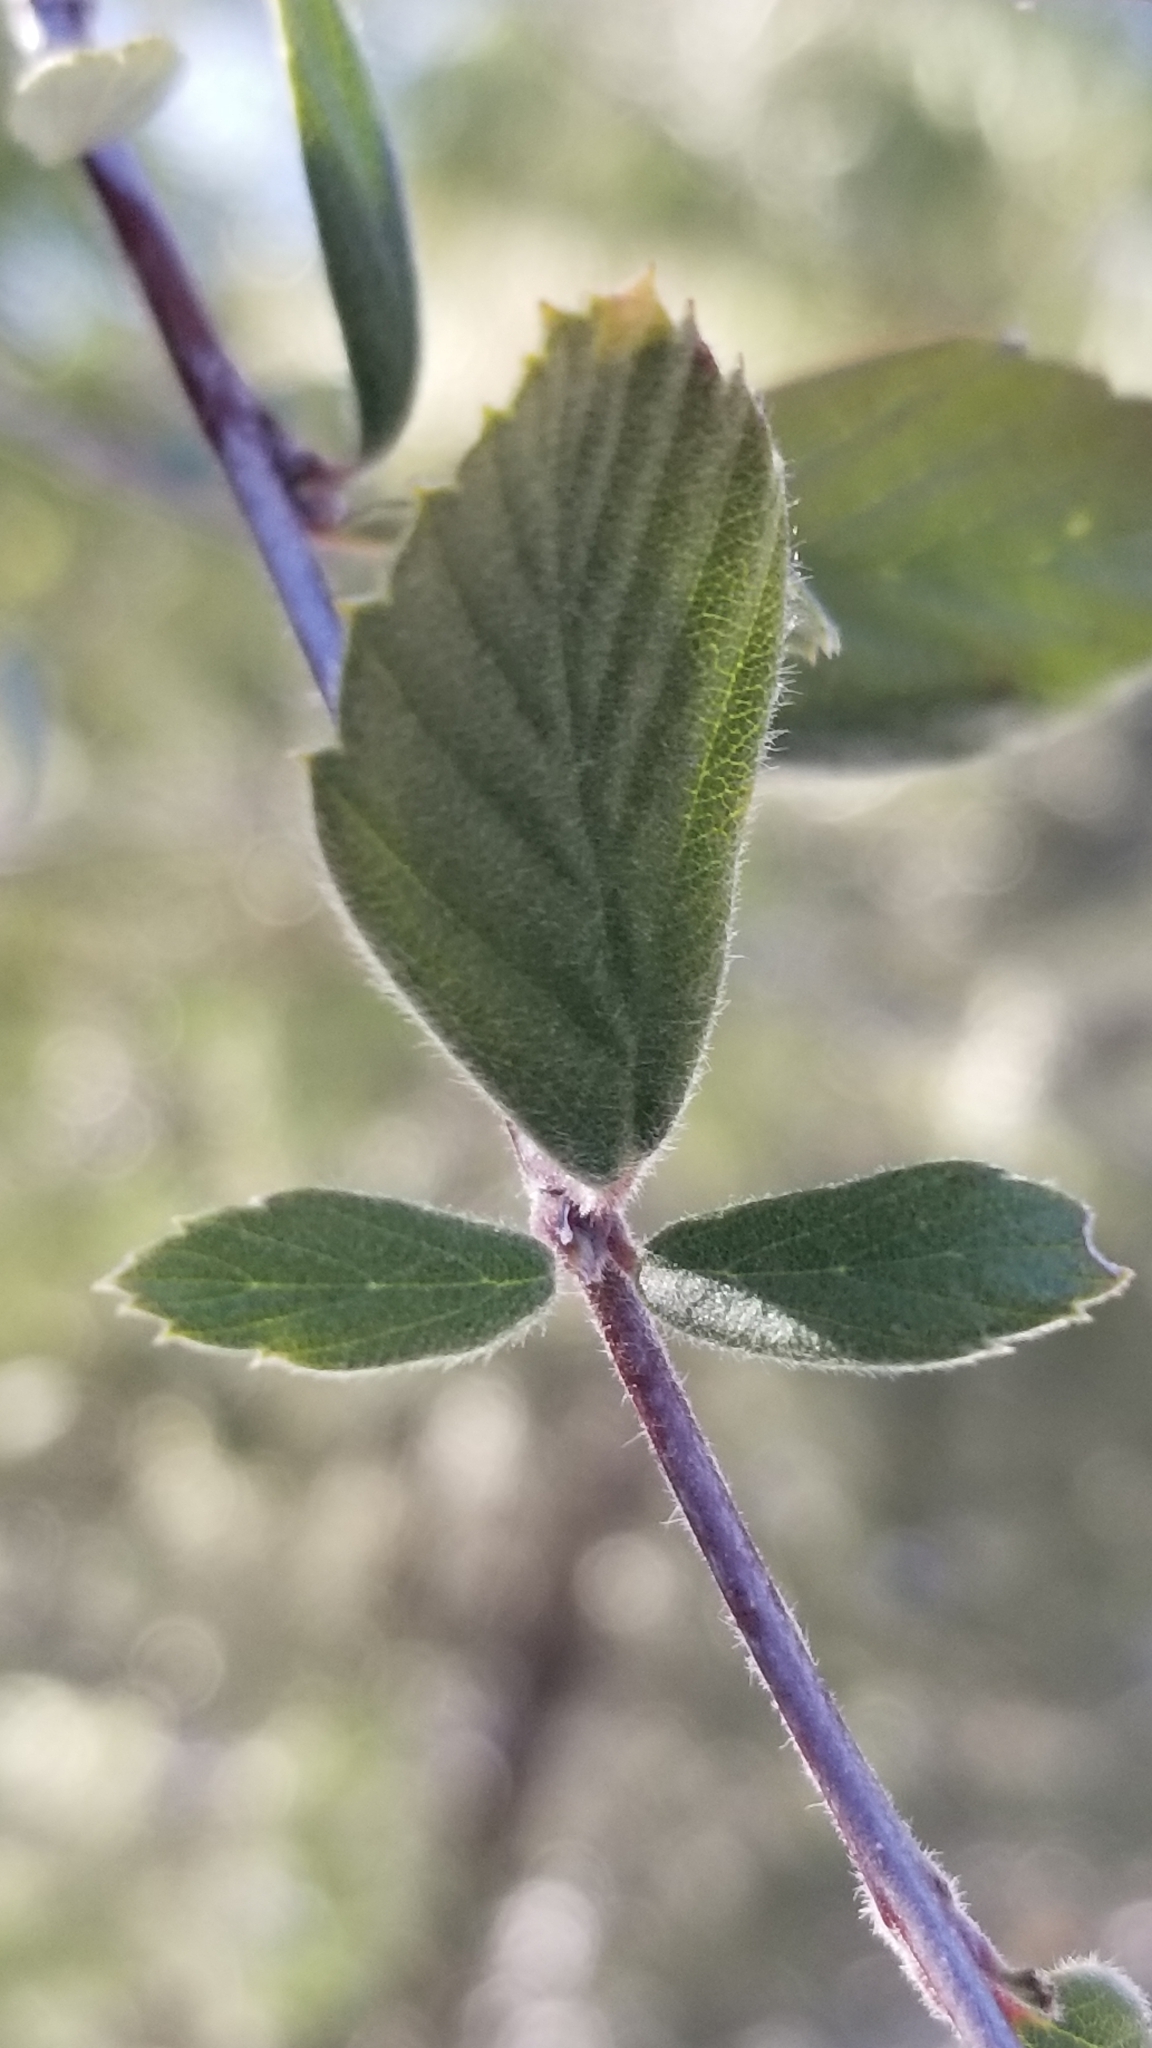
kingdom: Plantae
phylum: Tracheophyta
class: Magnoliopsida
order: Rosales
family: Rosaceae
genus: Cercocarpus
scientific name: Cercocarpus betuloides
